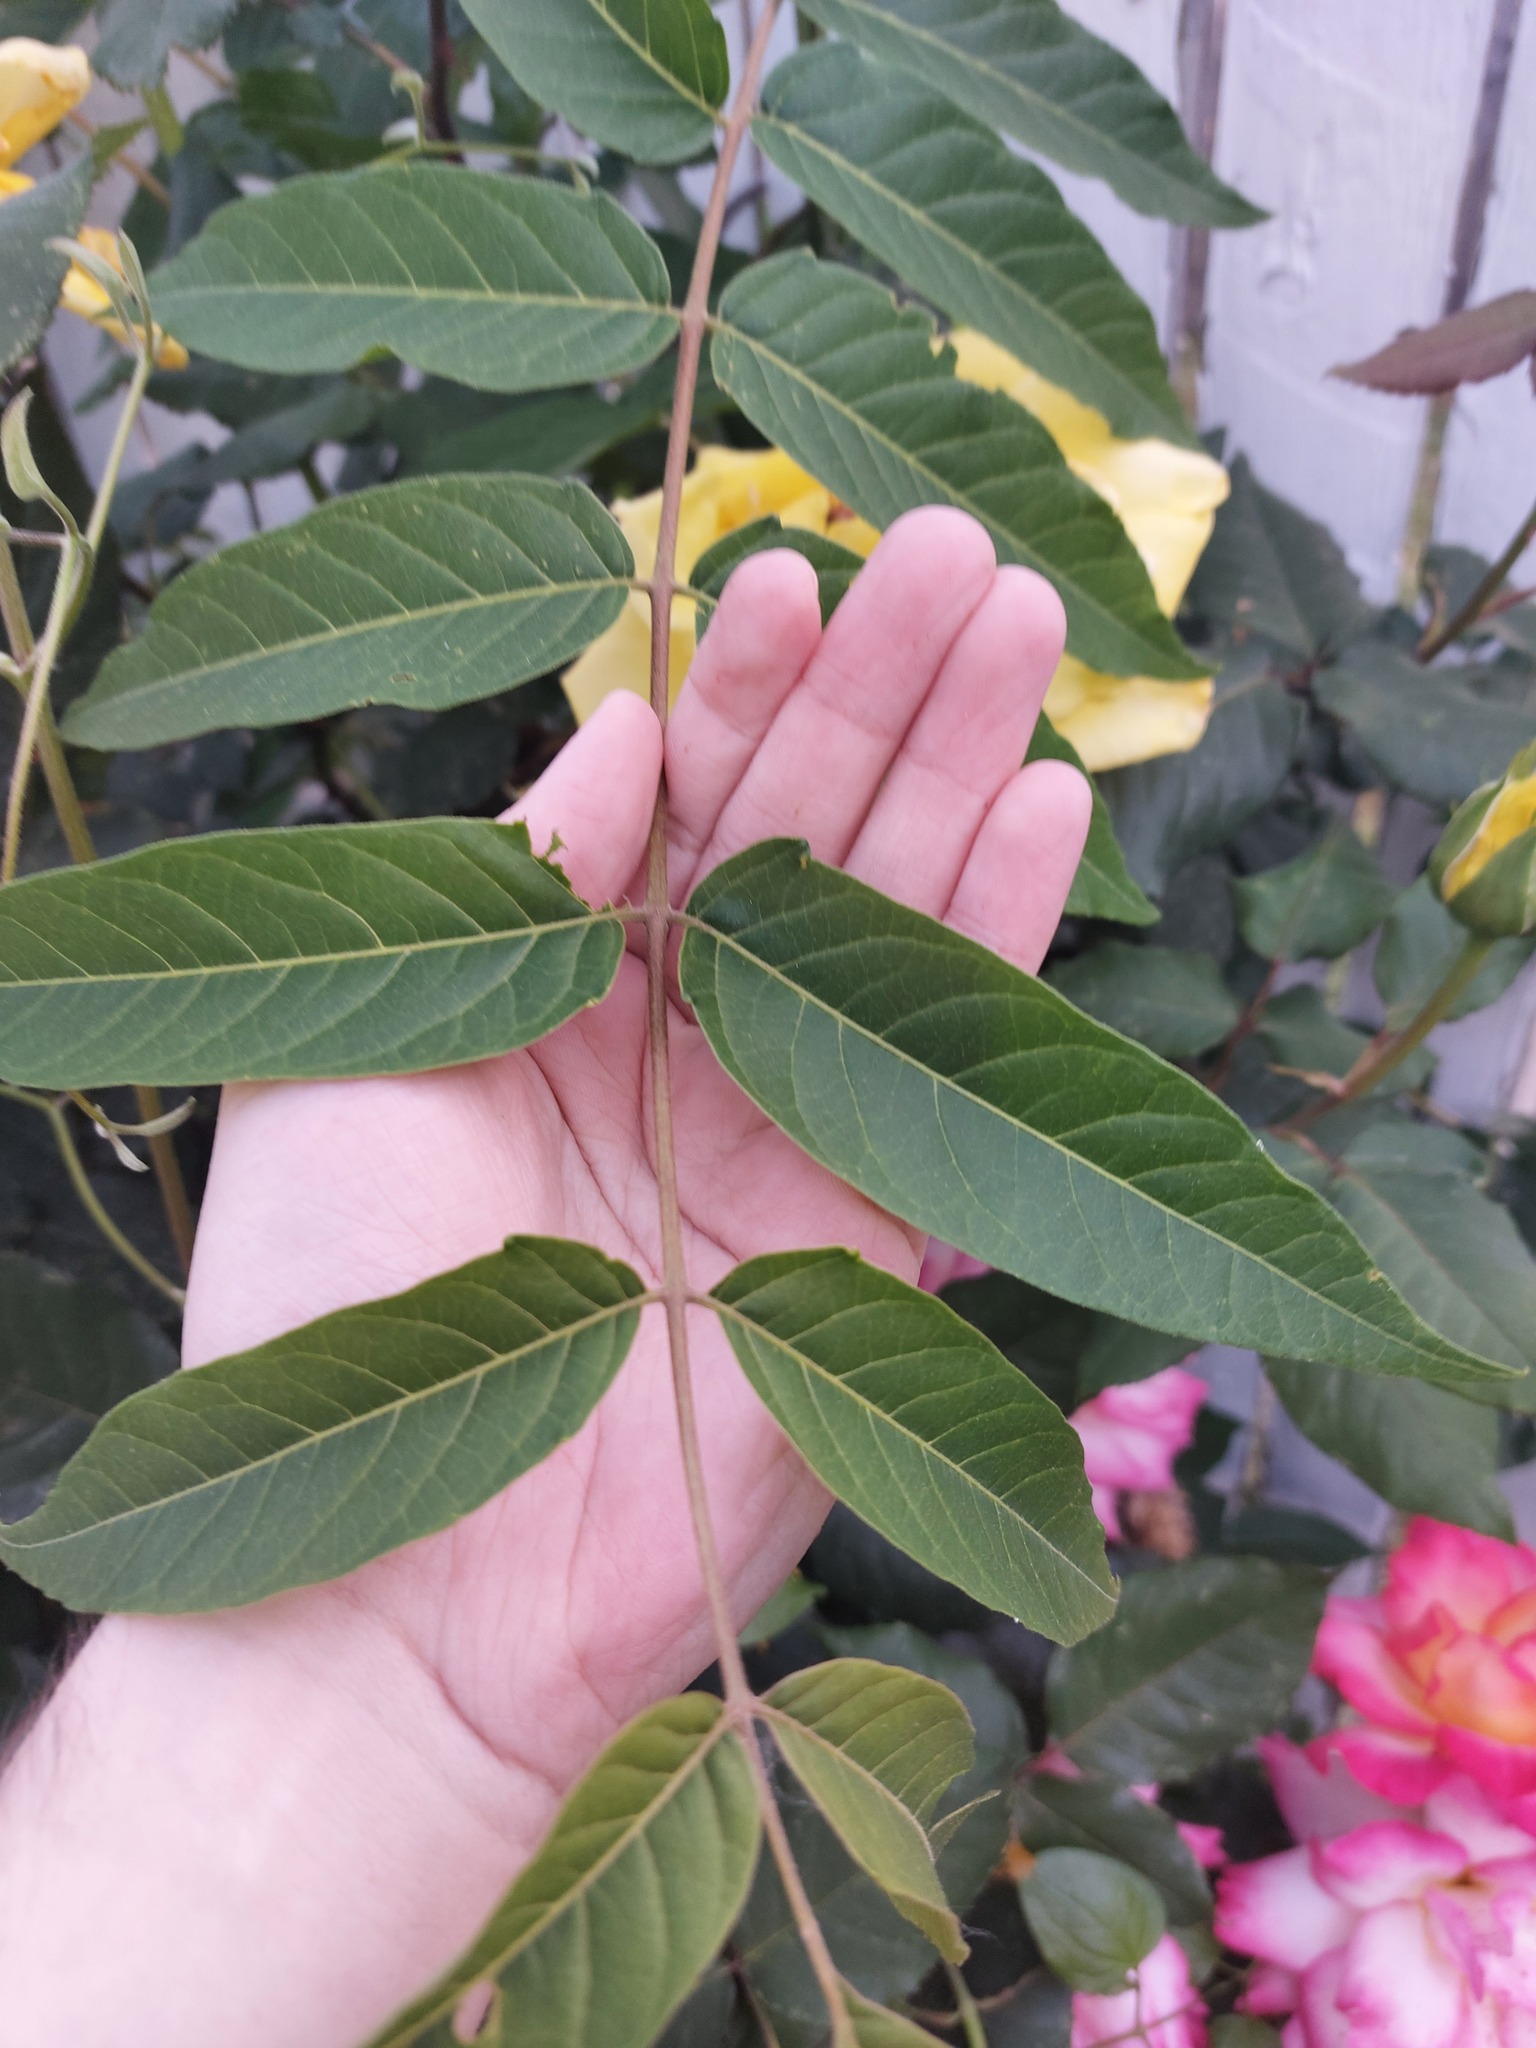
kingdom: Plantae
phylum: Tracheophyta
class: Magnoliopsida
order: Sapindales
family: Simaroubaceae
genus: Ailanthus
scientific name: Ailanthus altissima
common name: Tree-of-heaven
